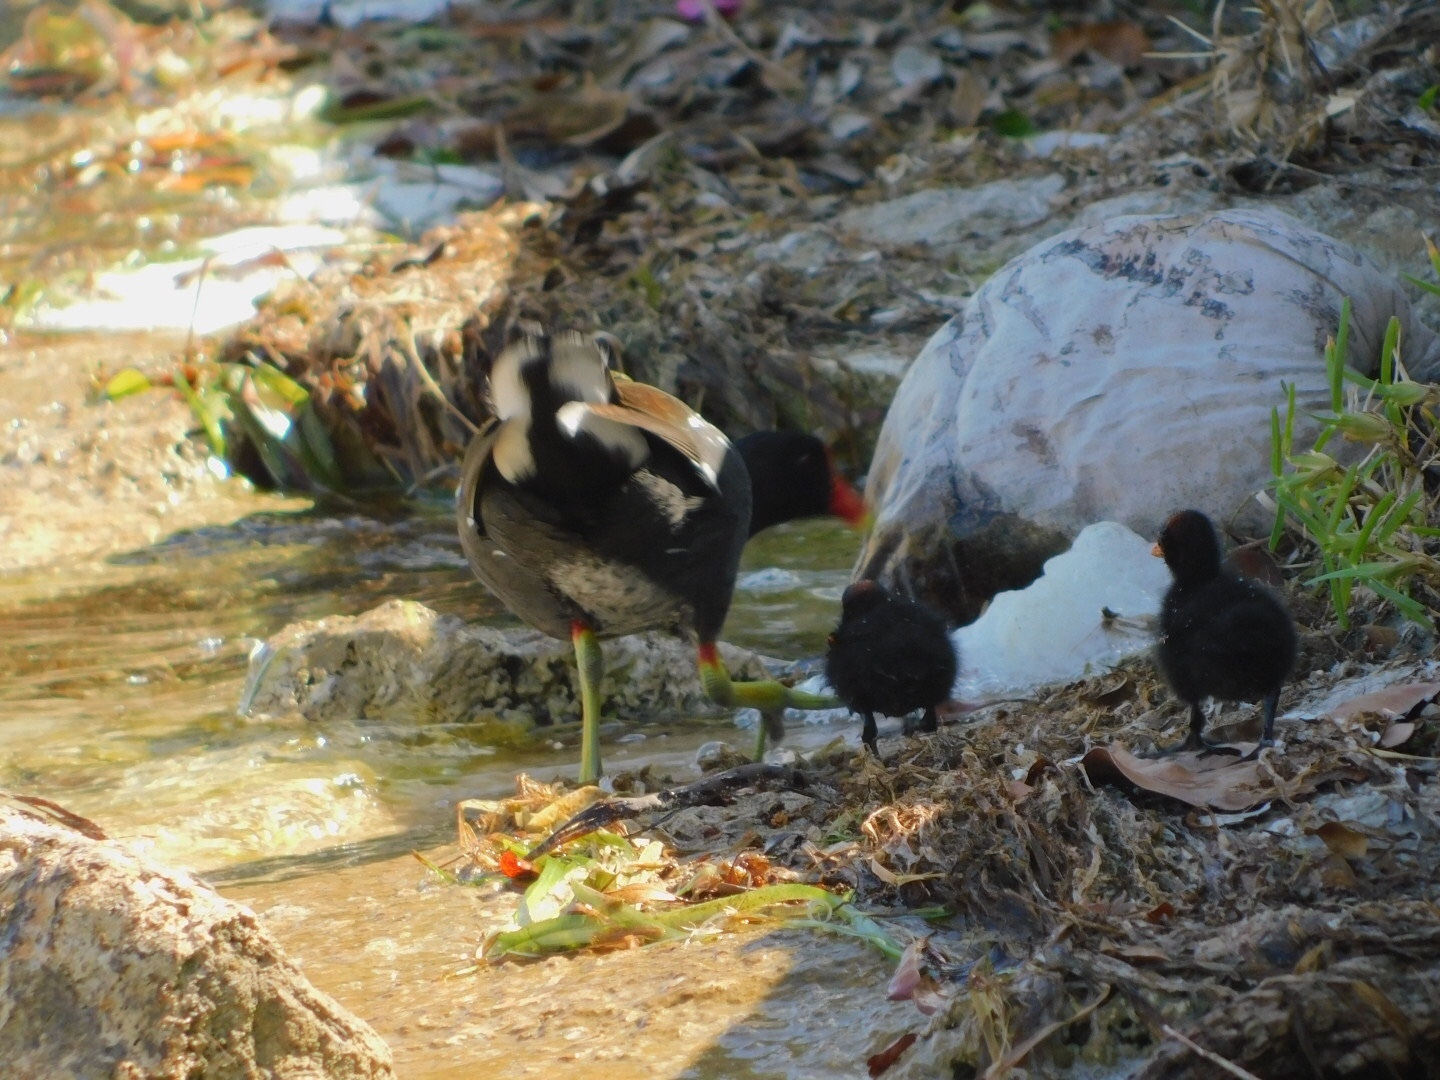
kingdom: Animalia
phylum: Chordata
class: Aves
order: Gruiformes
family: Rallidae
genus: Gallinula
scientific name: Gallinula chloropus
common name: Common moorhen
